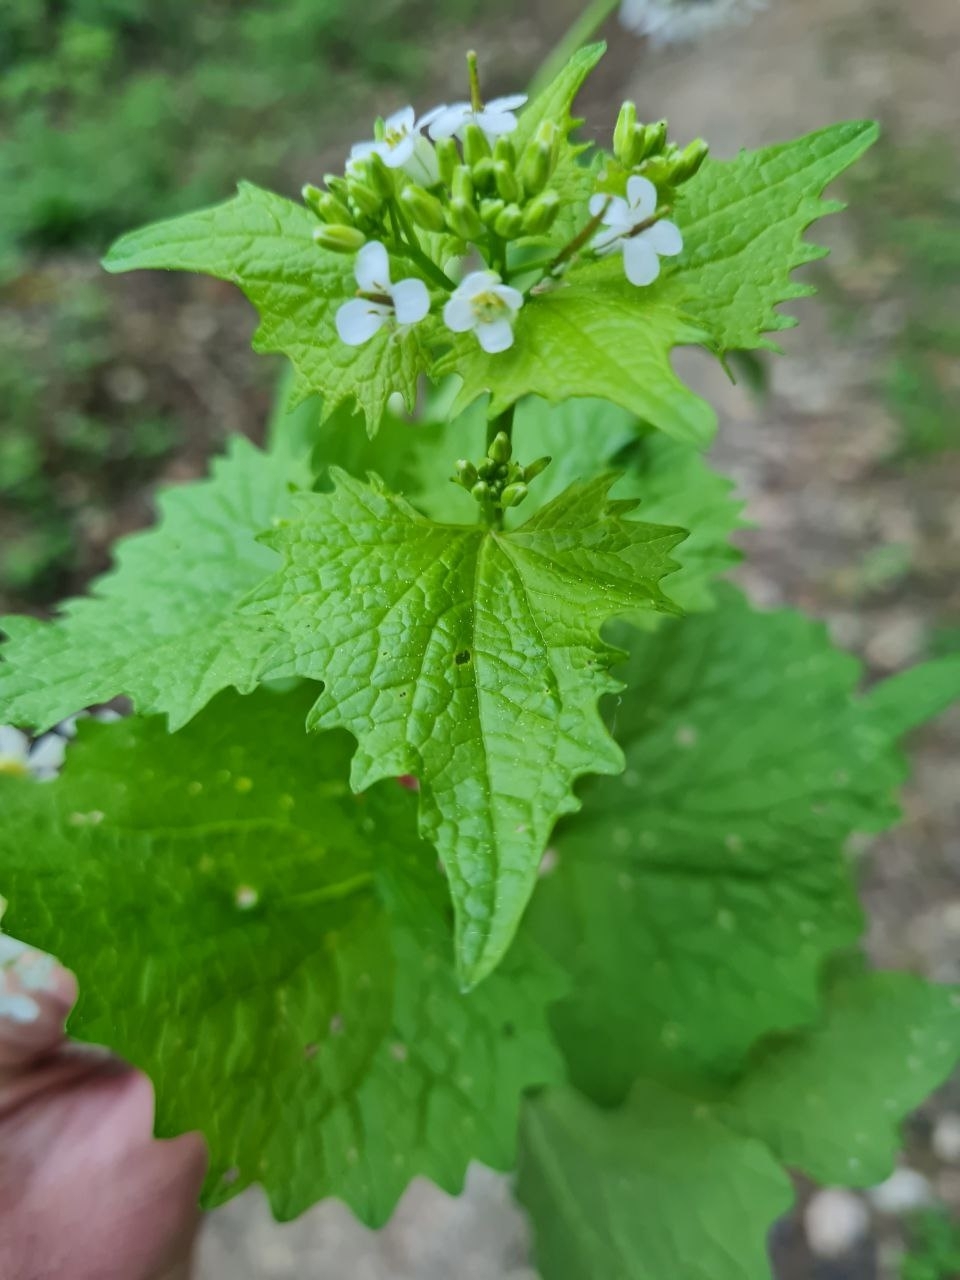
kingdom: Plantae
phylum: Tracheophyta
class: Magnoliopsida
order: Brassicales
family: Brassicaceae
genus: Alliaria
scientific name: Alliaria petiolata
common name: Garlic mustard
